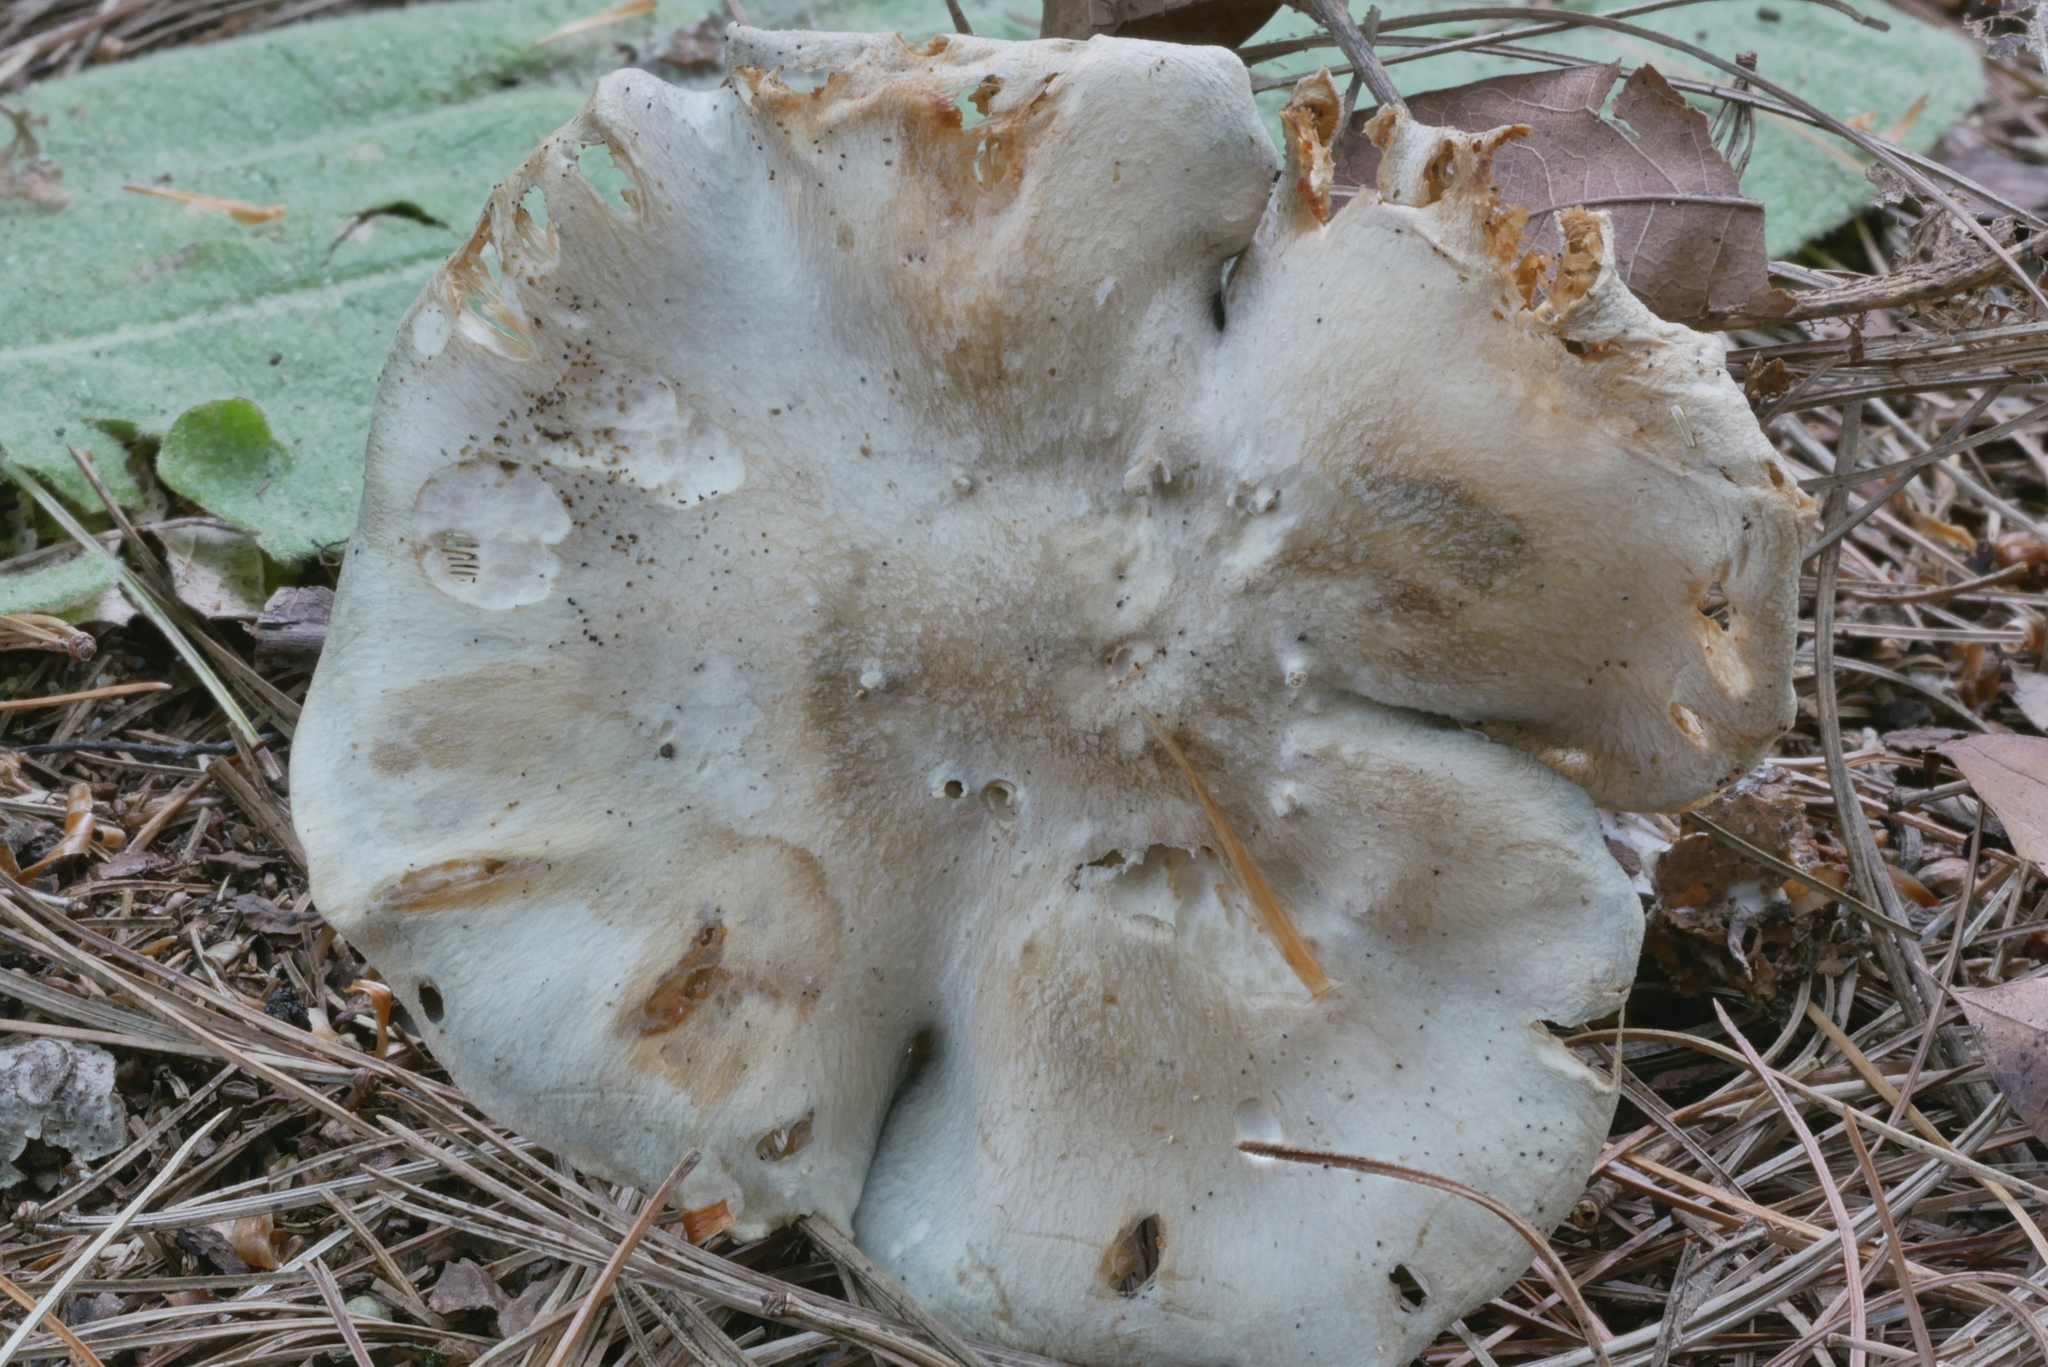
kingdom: Fungi
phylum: Basidiomycota
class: Agaricomycetes
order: Agaricales
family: Tricholomataceae
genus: Collybia
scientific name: Collybia
